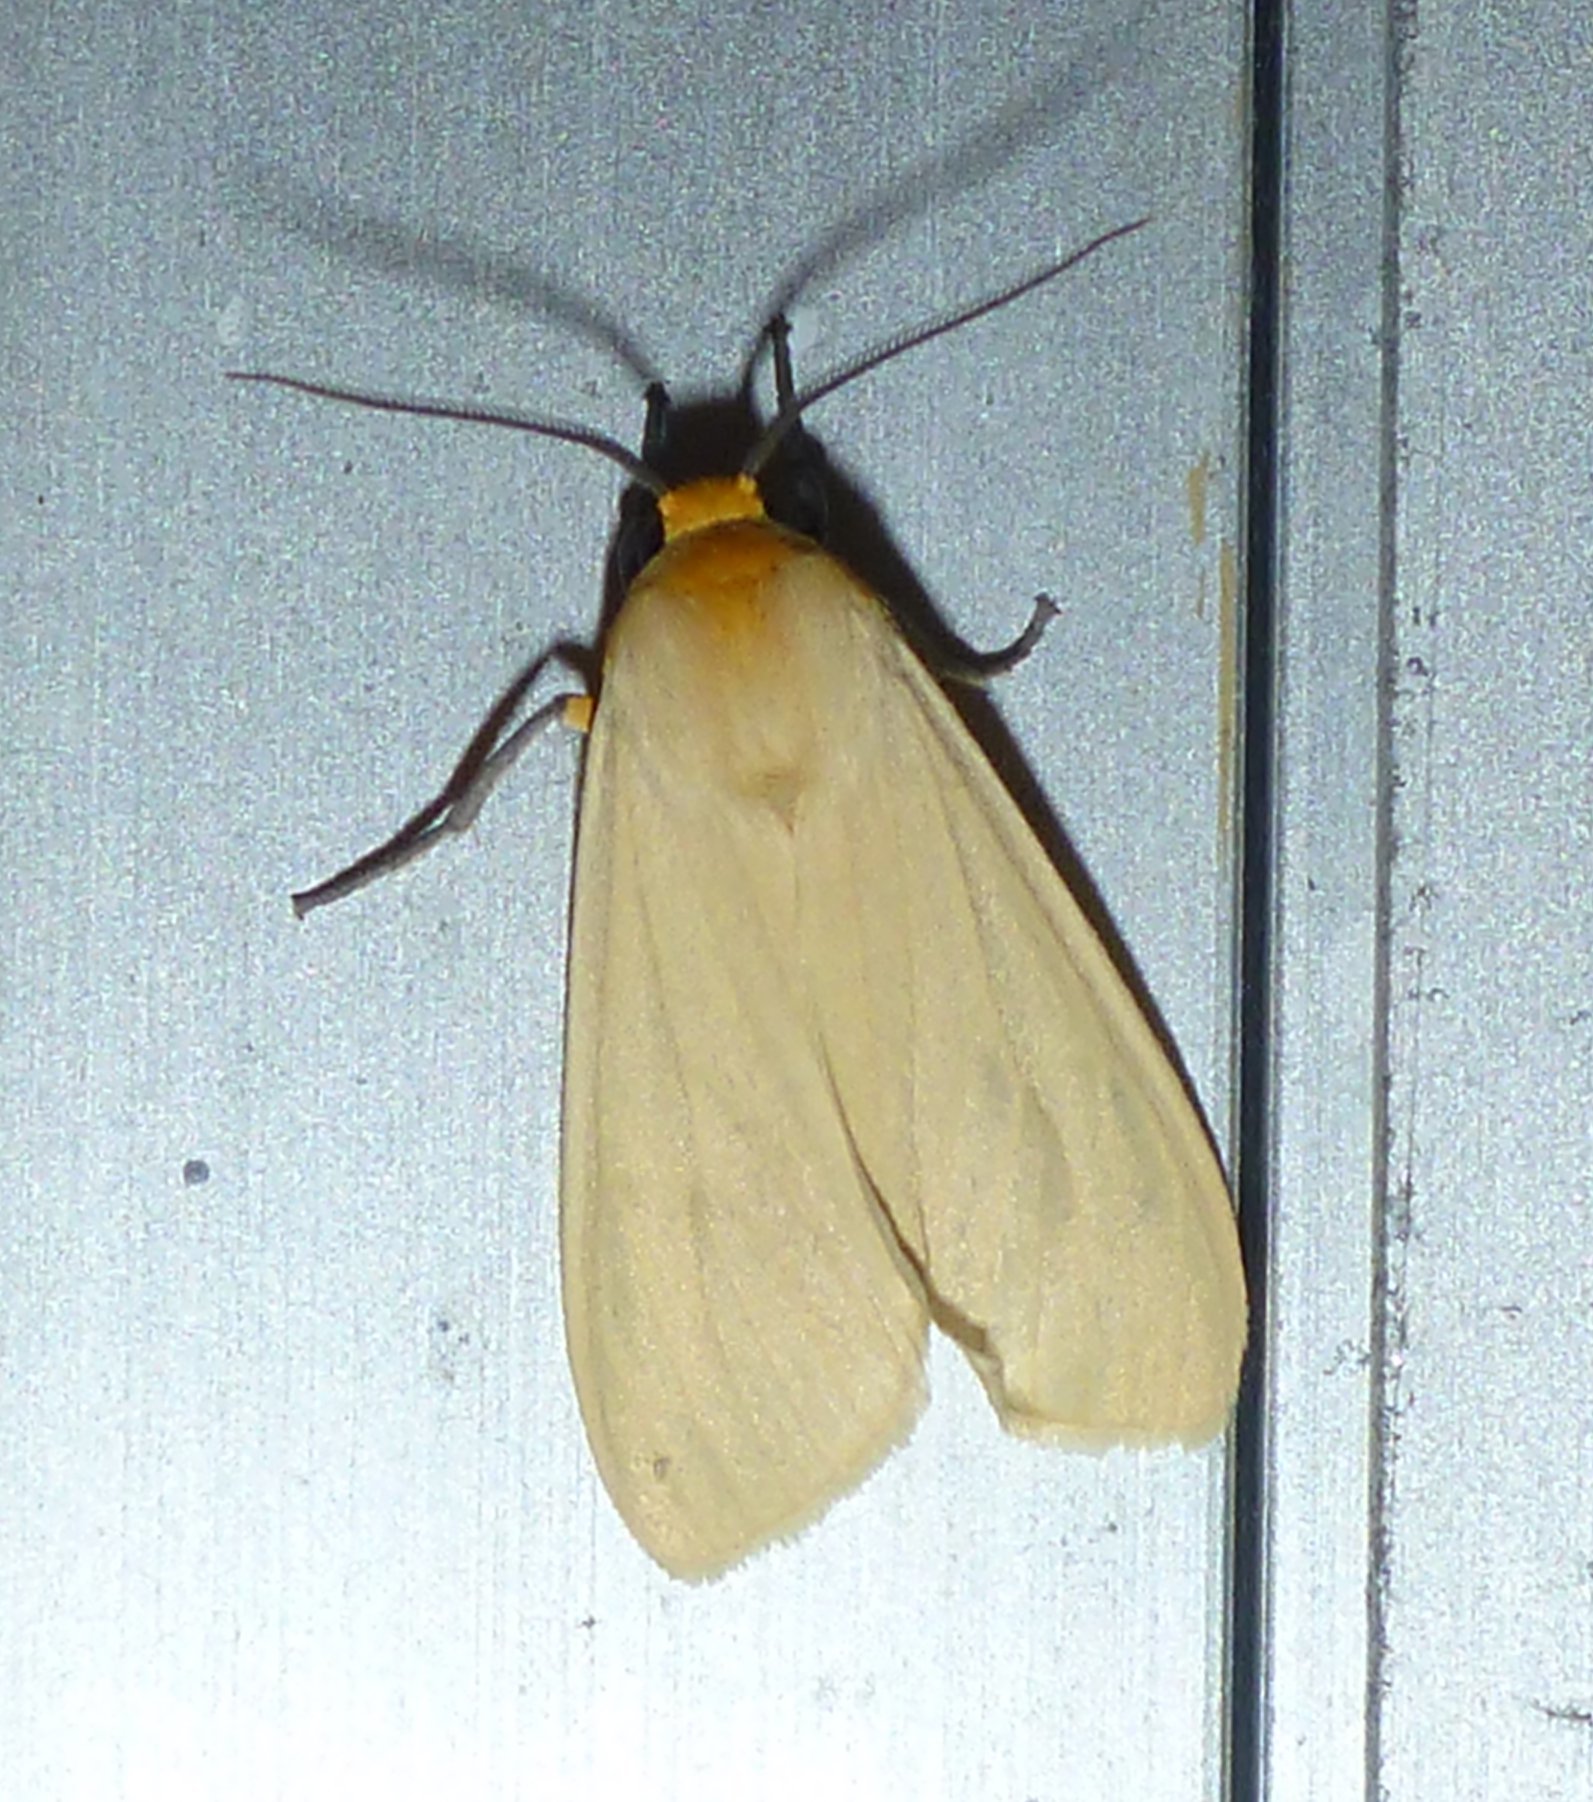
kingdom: Animalia
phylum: Arthropoda
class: Insecta
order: Lepidoptera
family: Erebidae
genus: Pareuchaetes
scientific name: Pareuchaetes insulata
